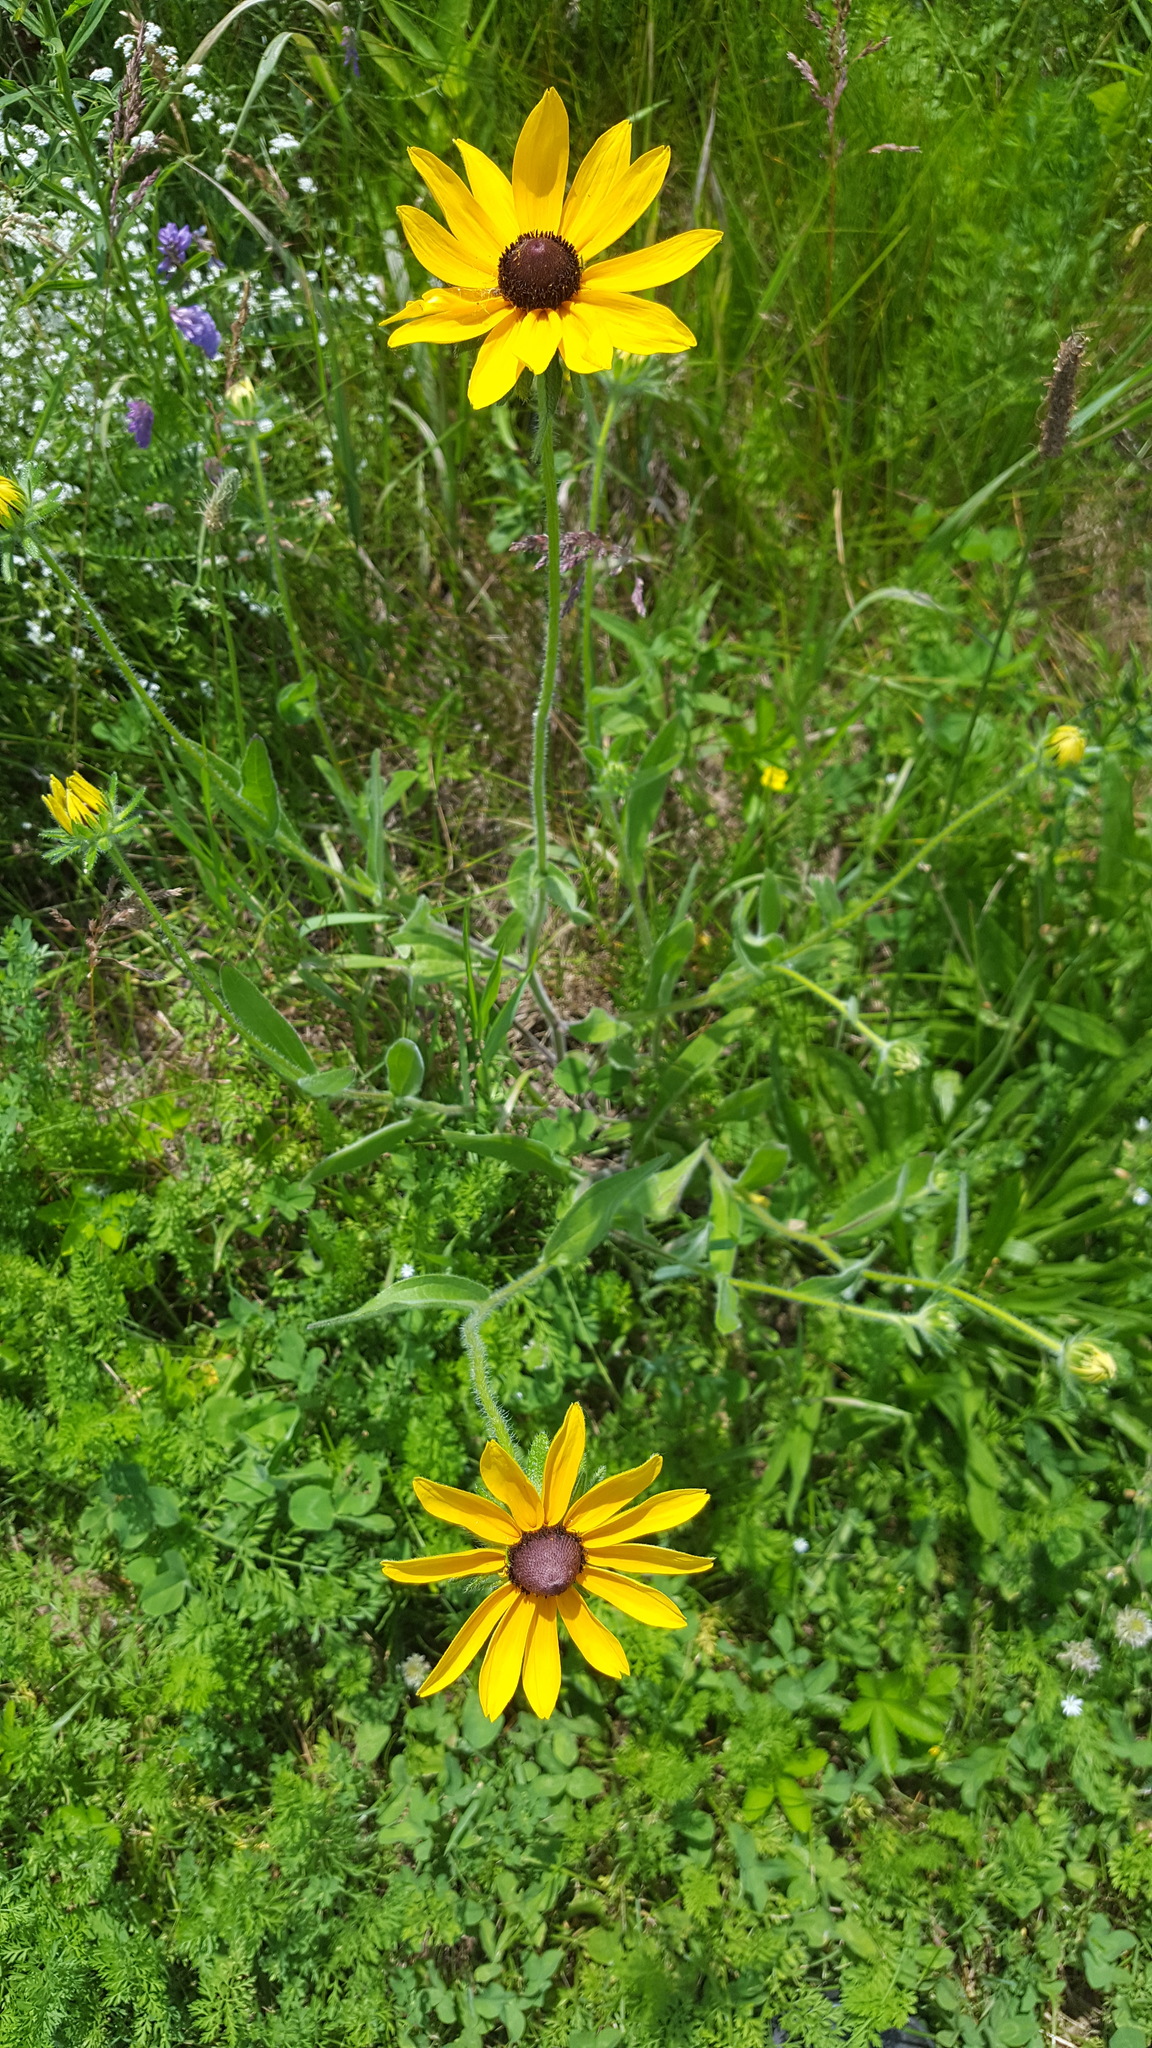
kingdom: Plantae
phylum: Tracheophyta
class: Magnoliopsida
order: Asterales
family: Asteraceae
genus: Rudbeckia
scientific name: Rudbeckia hirta
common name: Black-eyed-susan
